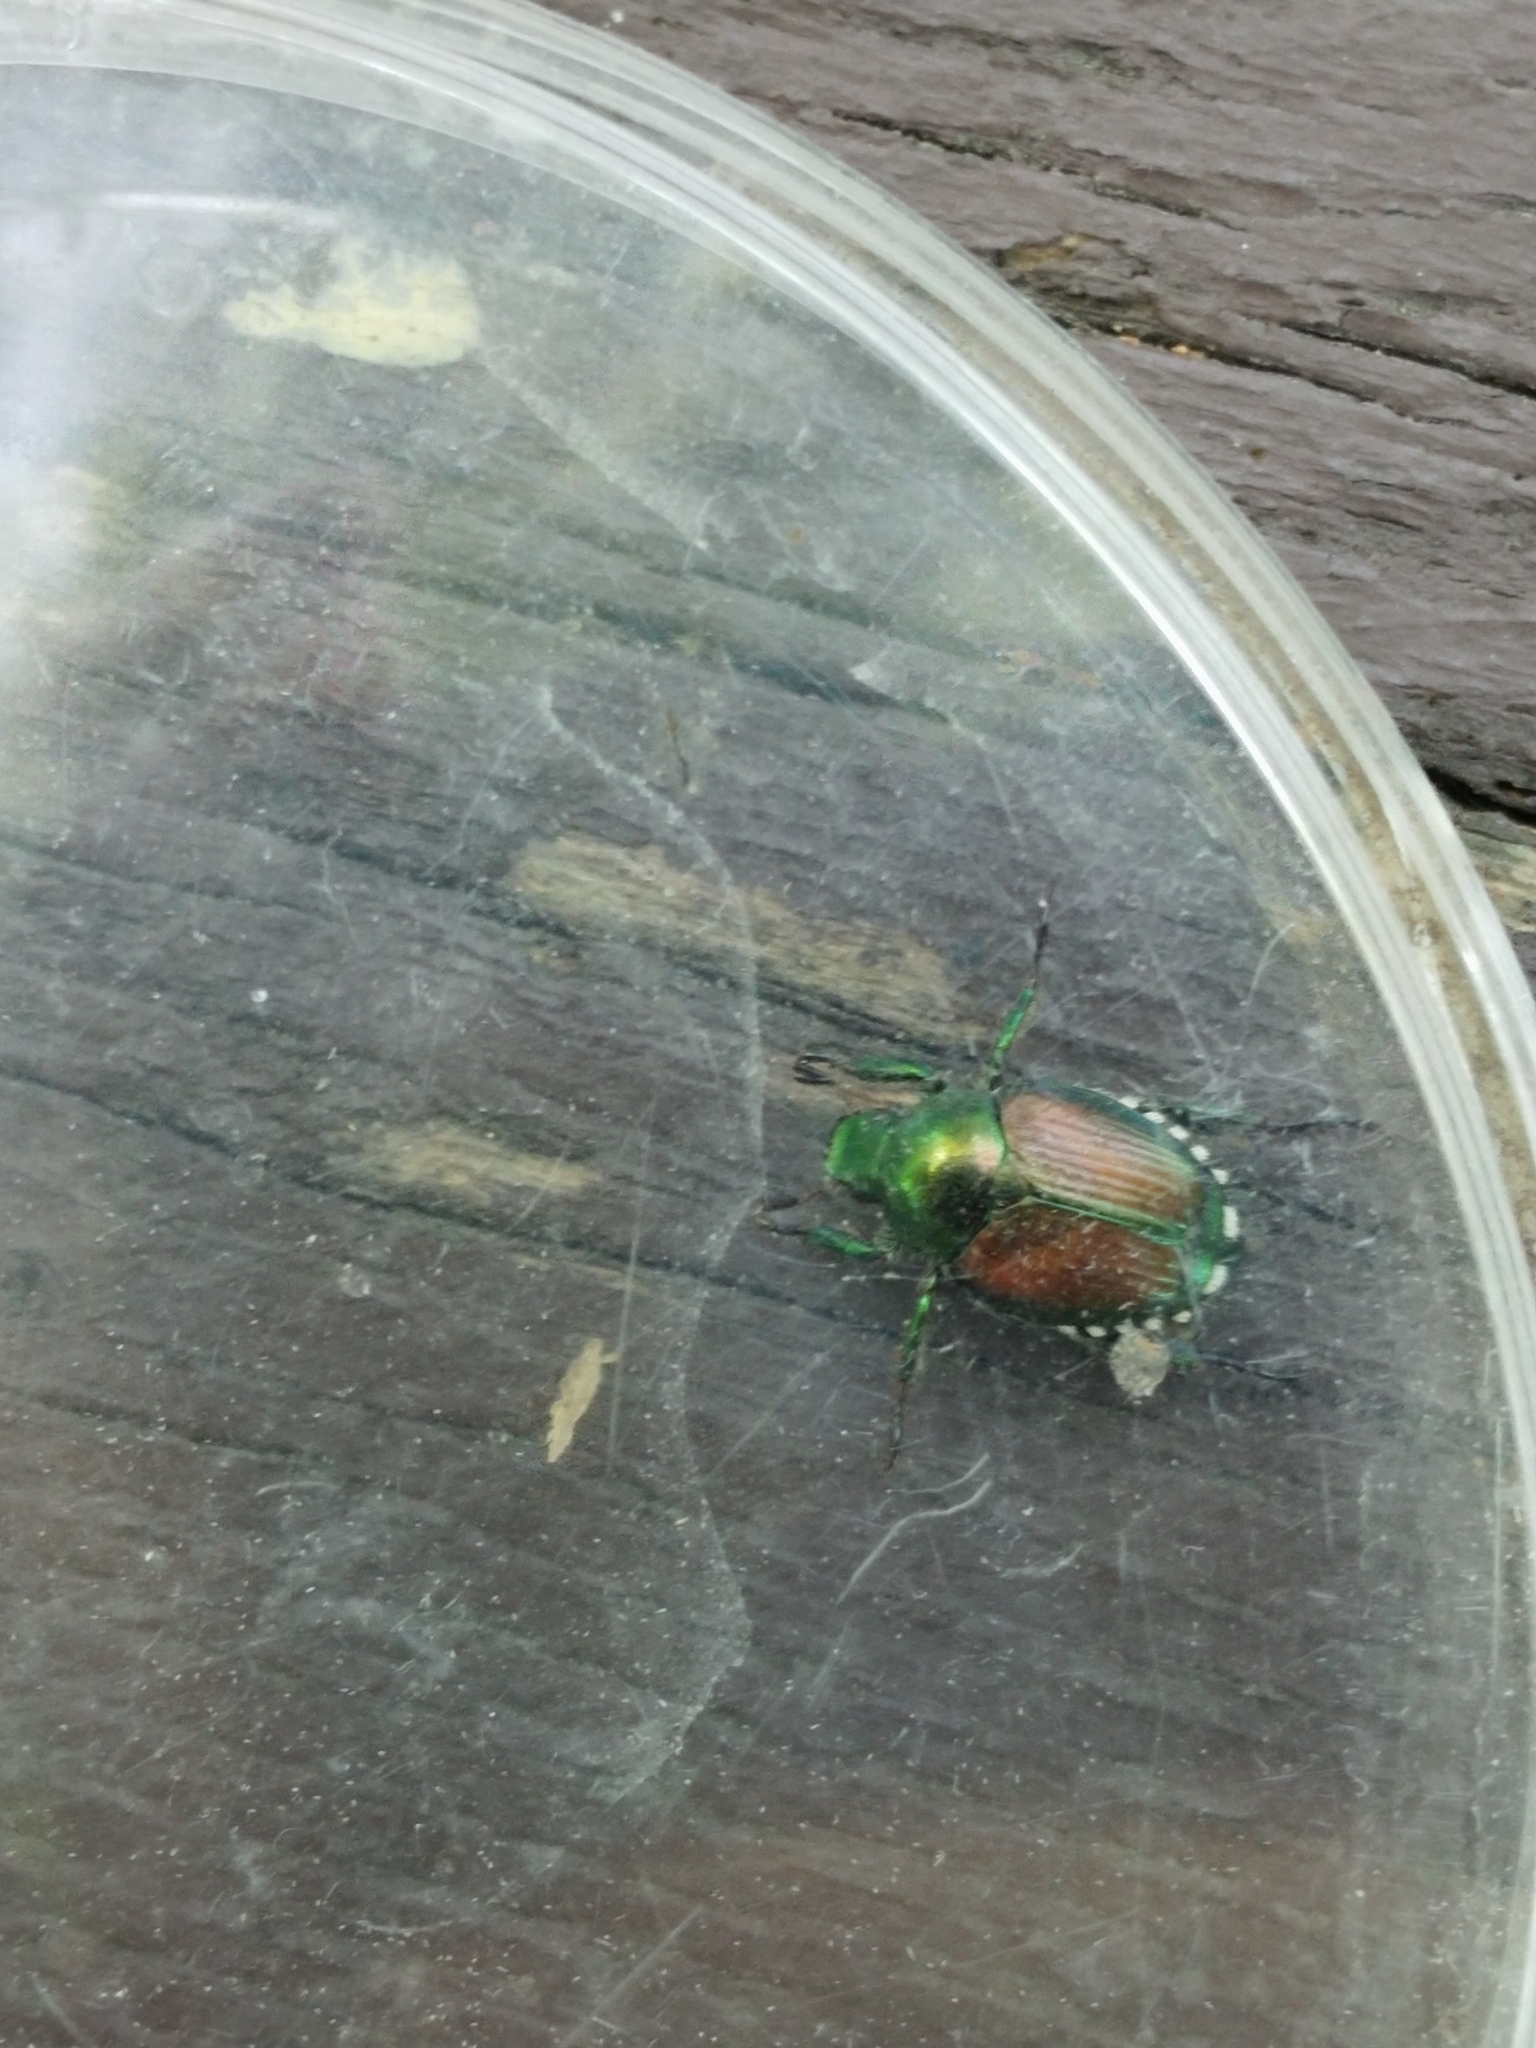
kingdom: Animalia
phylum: Arthropoda
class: Insecta
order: Coleoptera
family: Scarabaeidae
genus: Popillia
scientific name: Popillia japonica
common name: Japanese beetle
